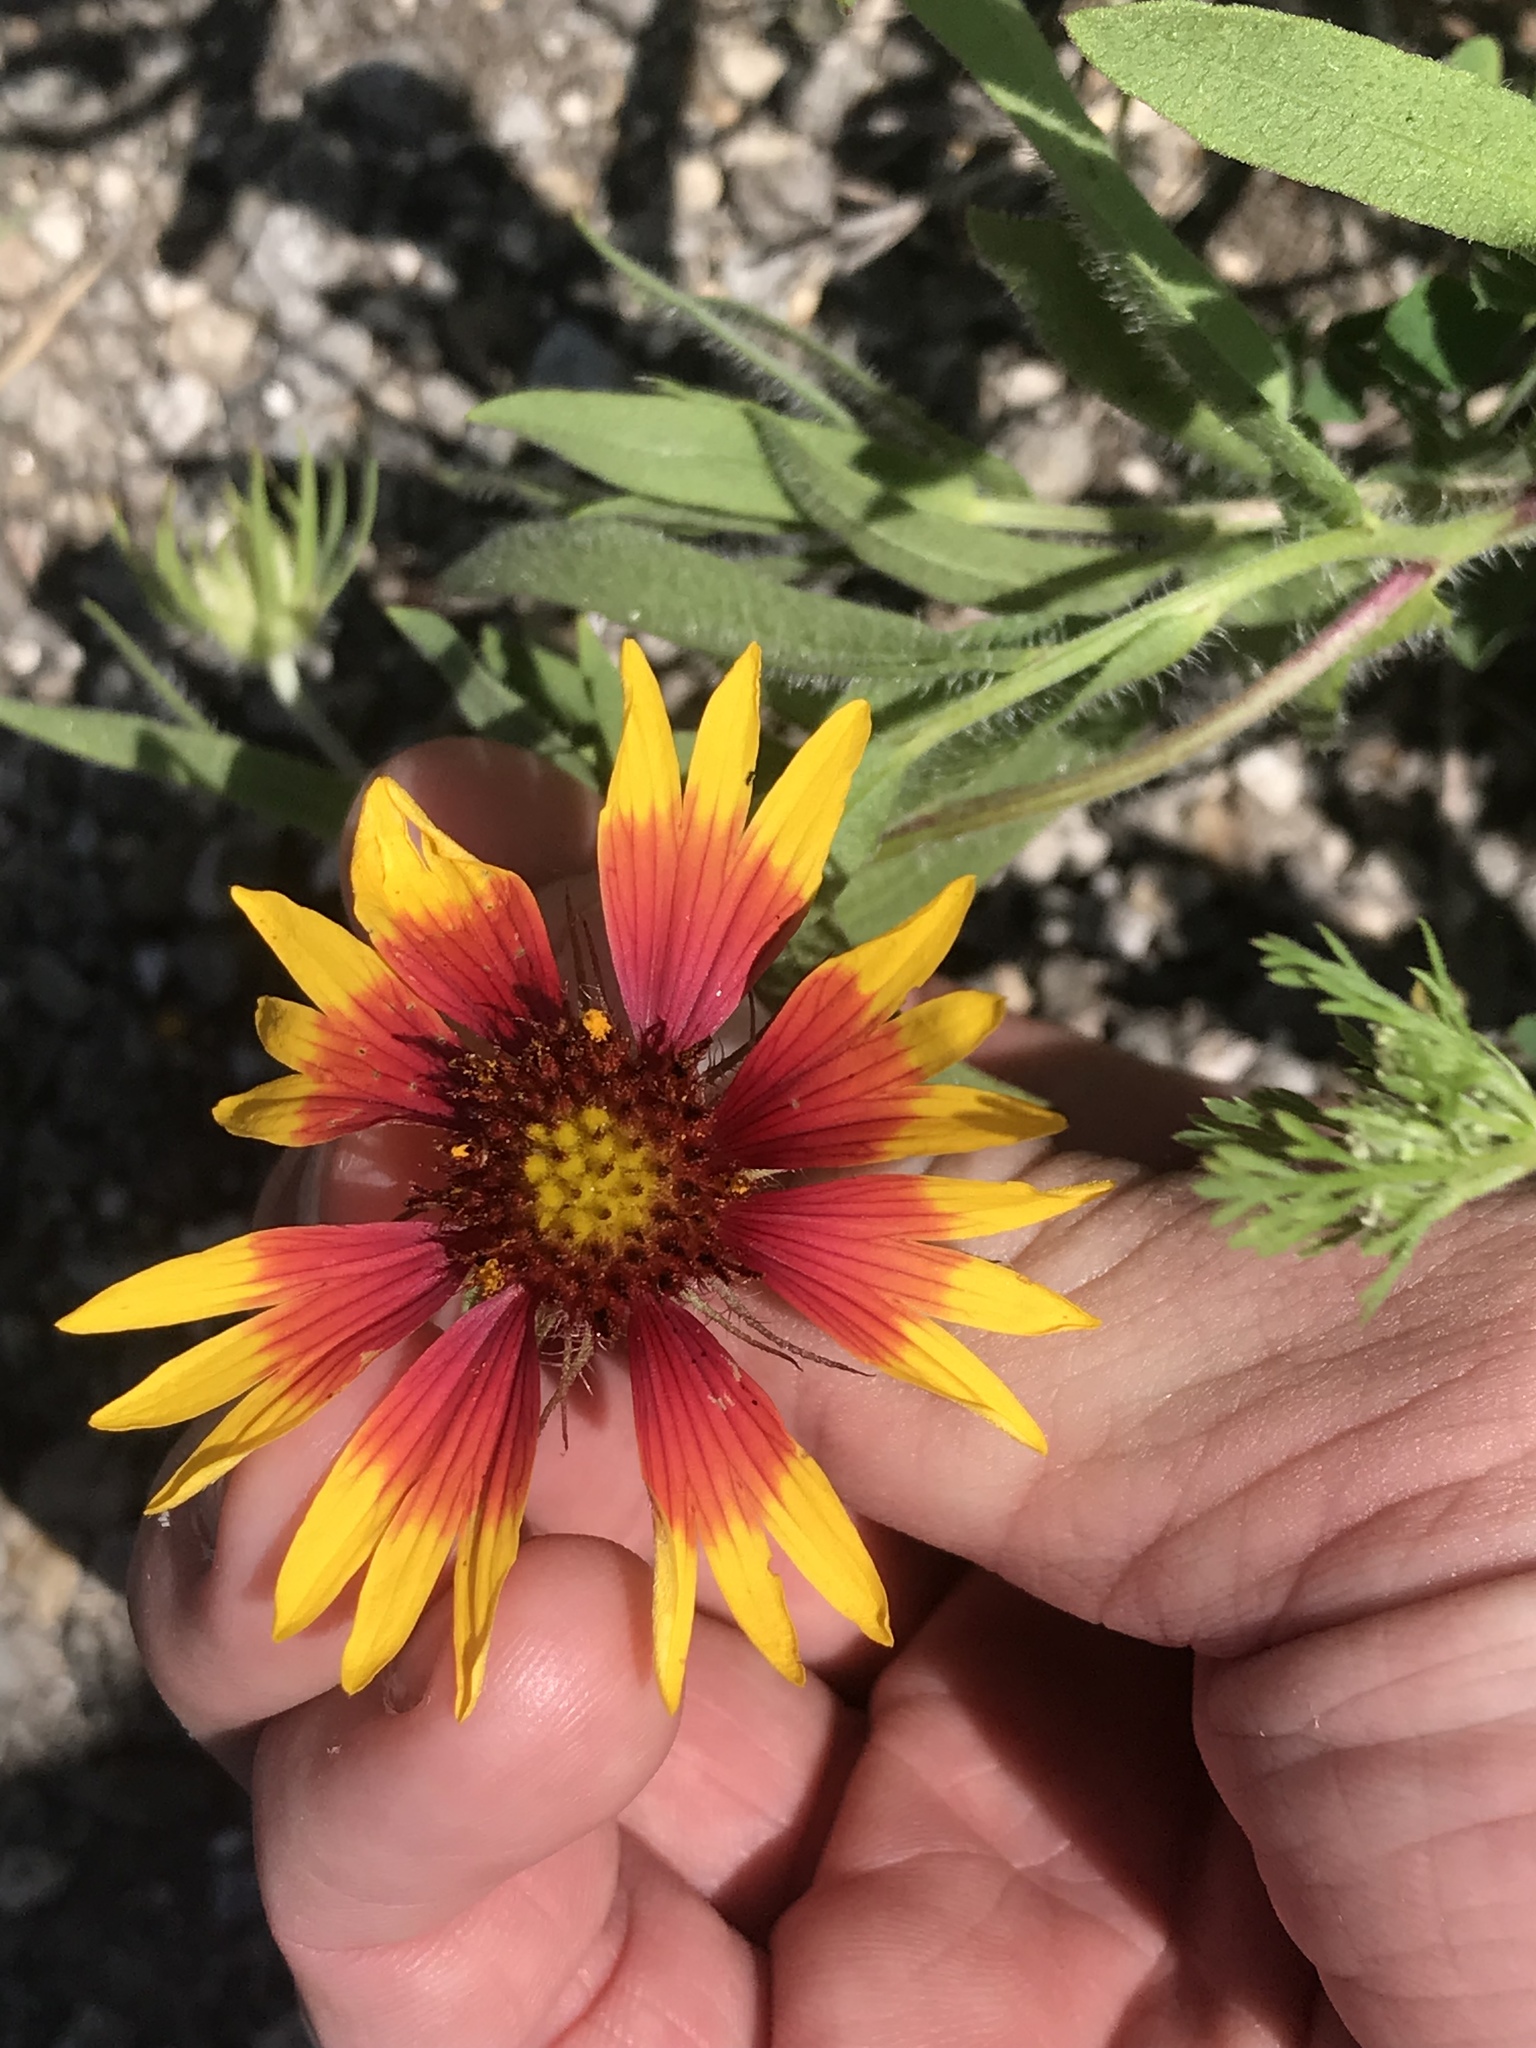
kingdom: Plantae
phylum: Tracheophyta
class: Magnoliopsida
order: Asterales
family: Asteraceae
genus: Gaillardia
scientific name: Gaillardia pulchella
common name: Firewheel
